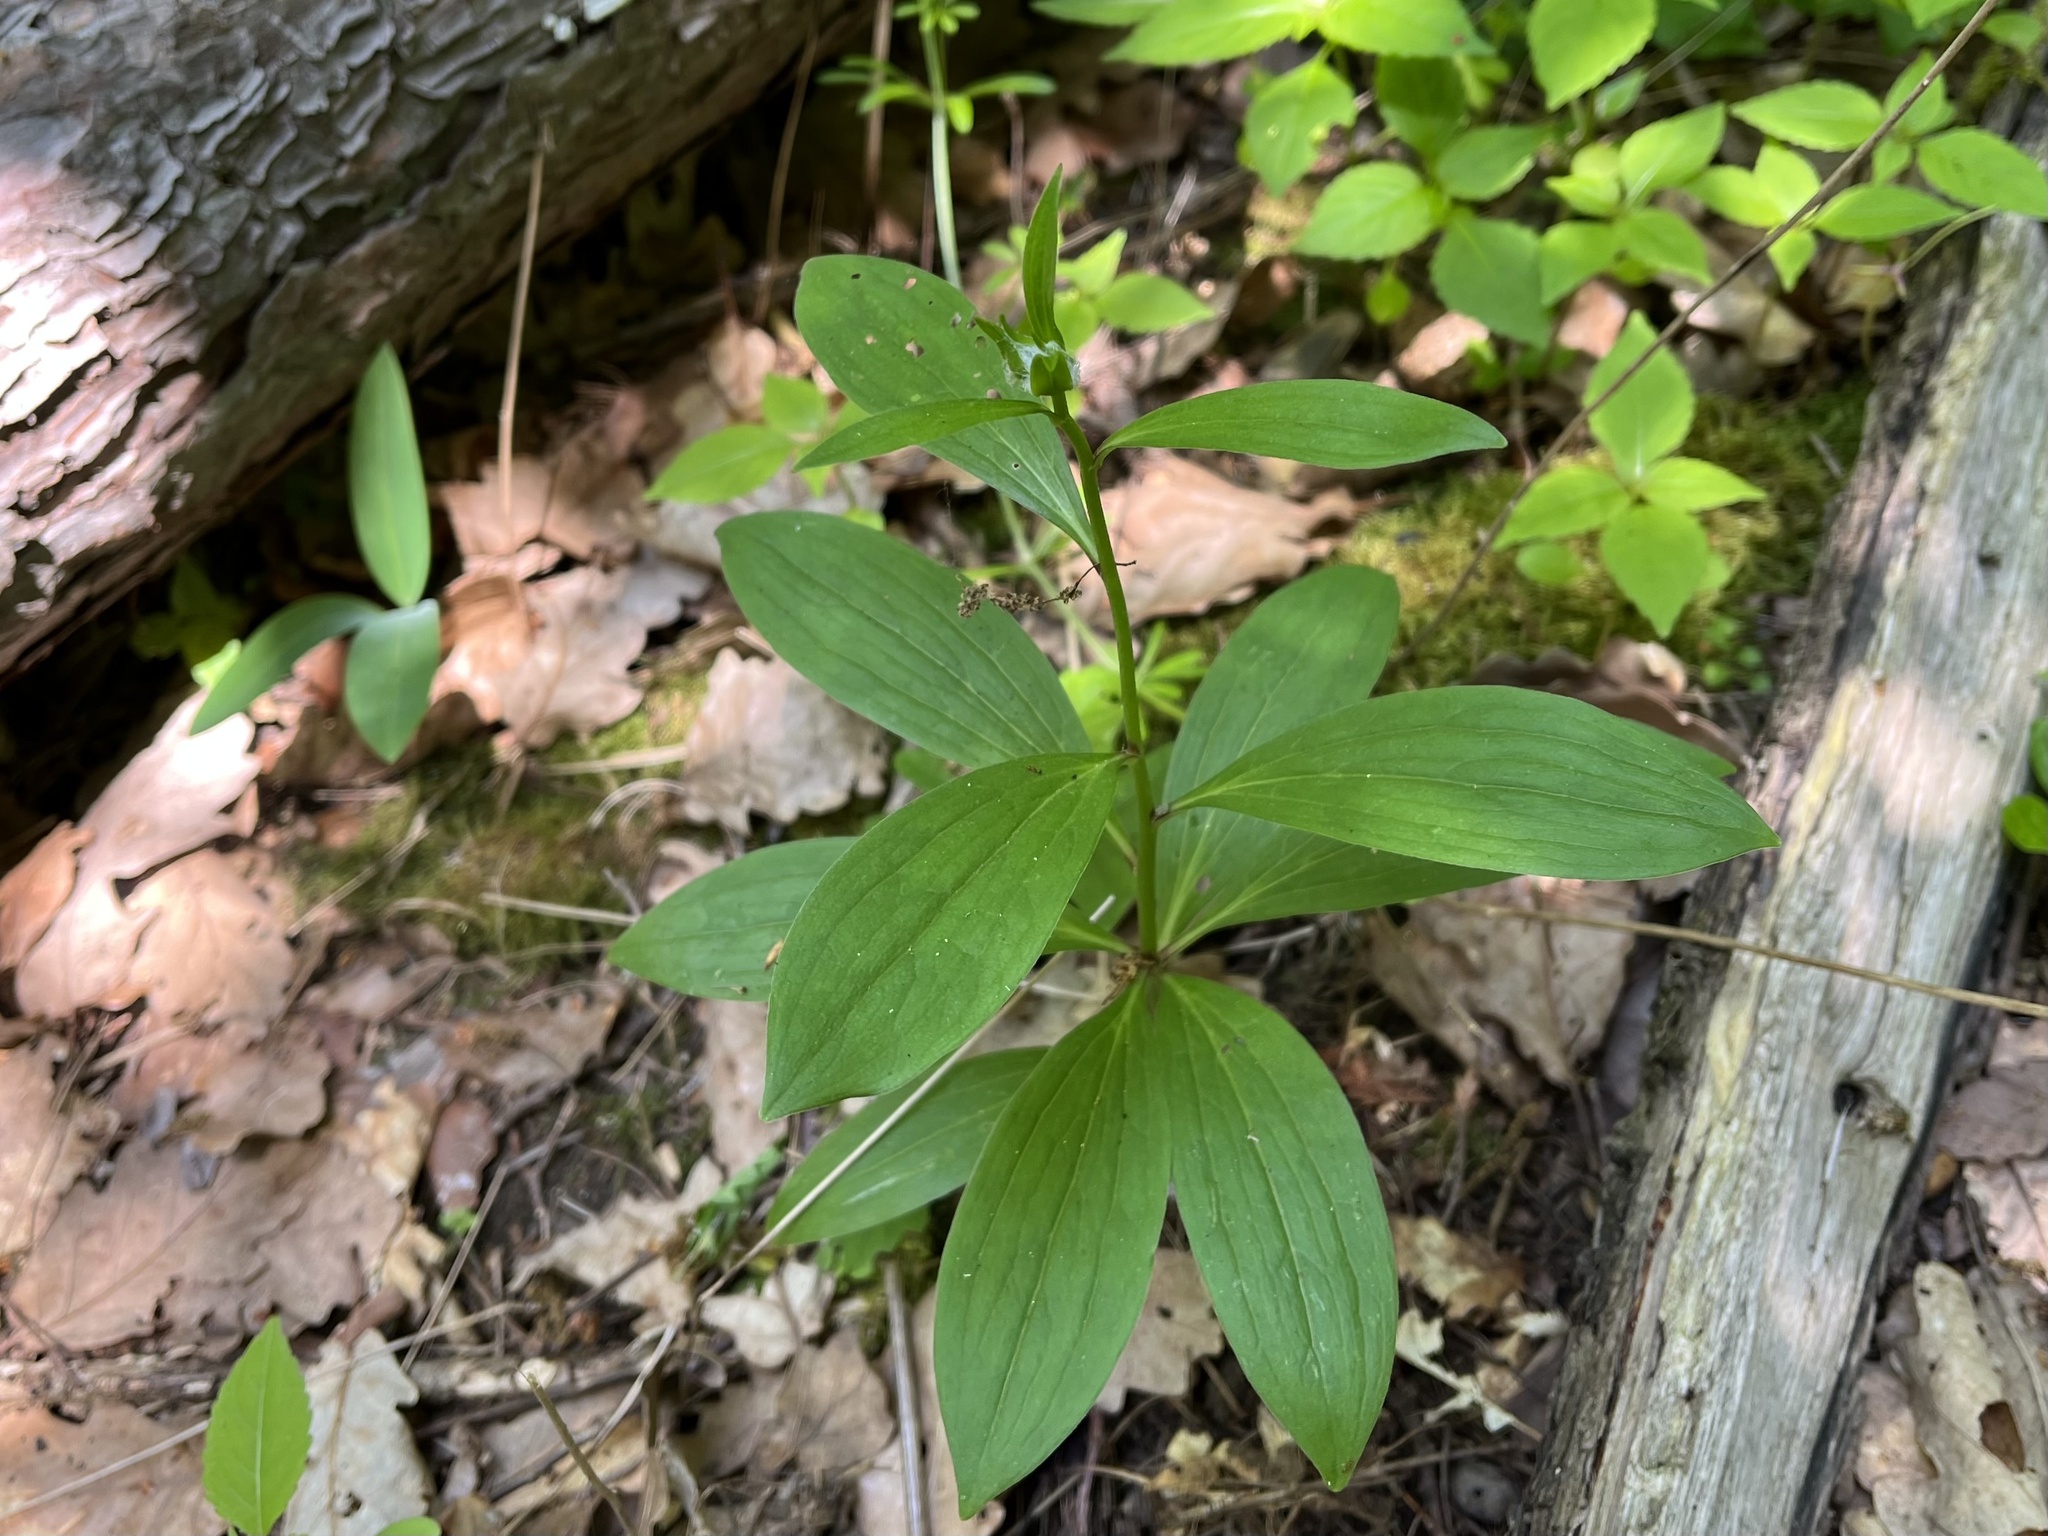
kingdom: Plantae
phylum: Tracheophyta
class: Liliopsida
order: Liliales
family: Liliaceae
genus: Lilium
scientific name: Lilium martagon
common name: Martagon lily
